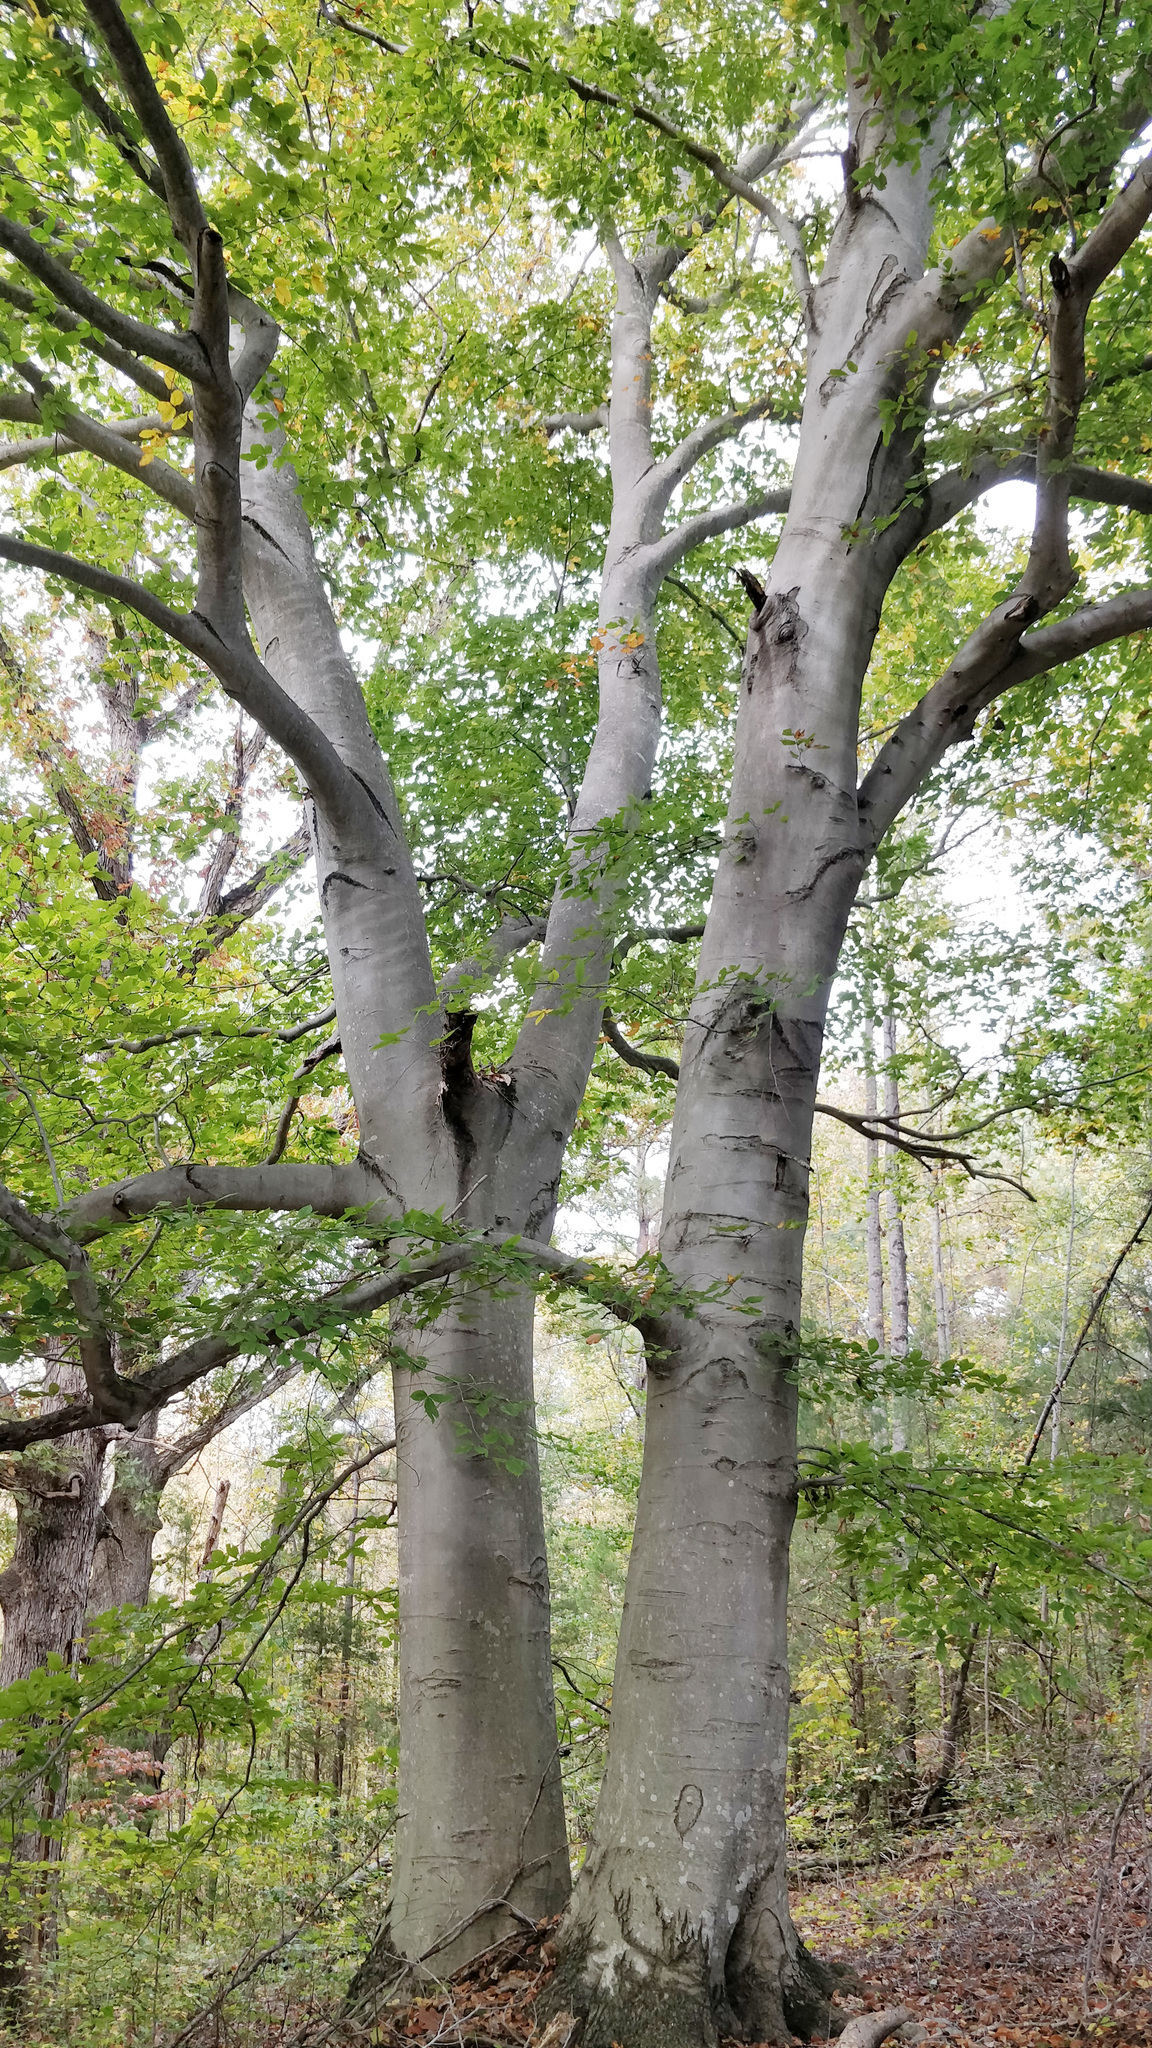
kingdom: Plantae
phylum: Tracheophyta
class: Magnoliopsida
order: Fagales
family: Fagaceae
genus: Fagus
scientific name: Fagus grandifolia
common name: American beech
